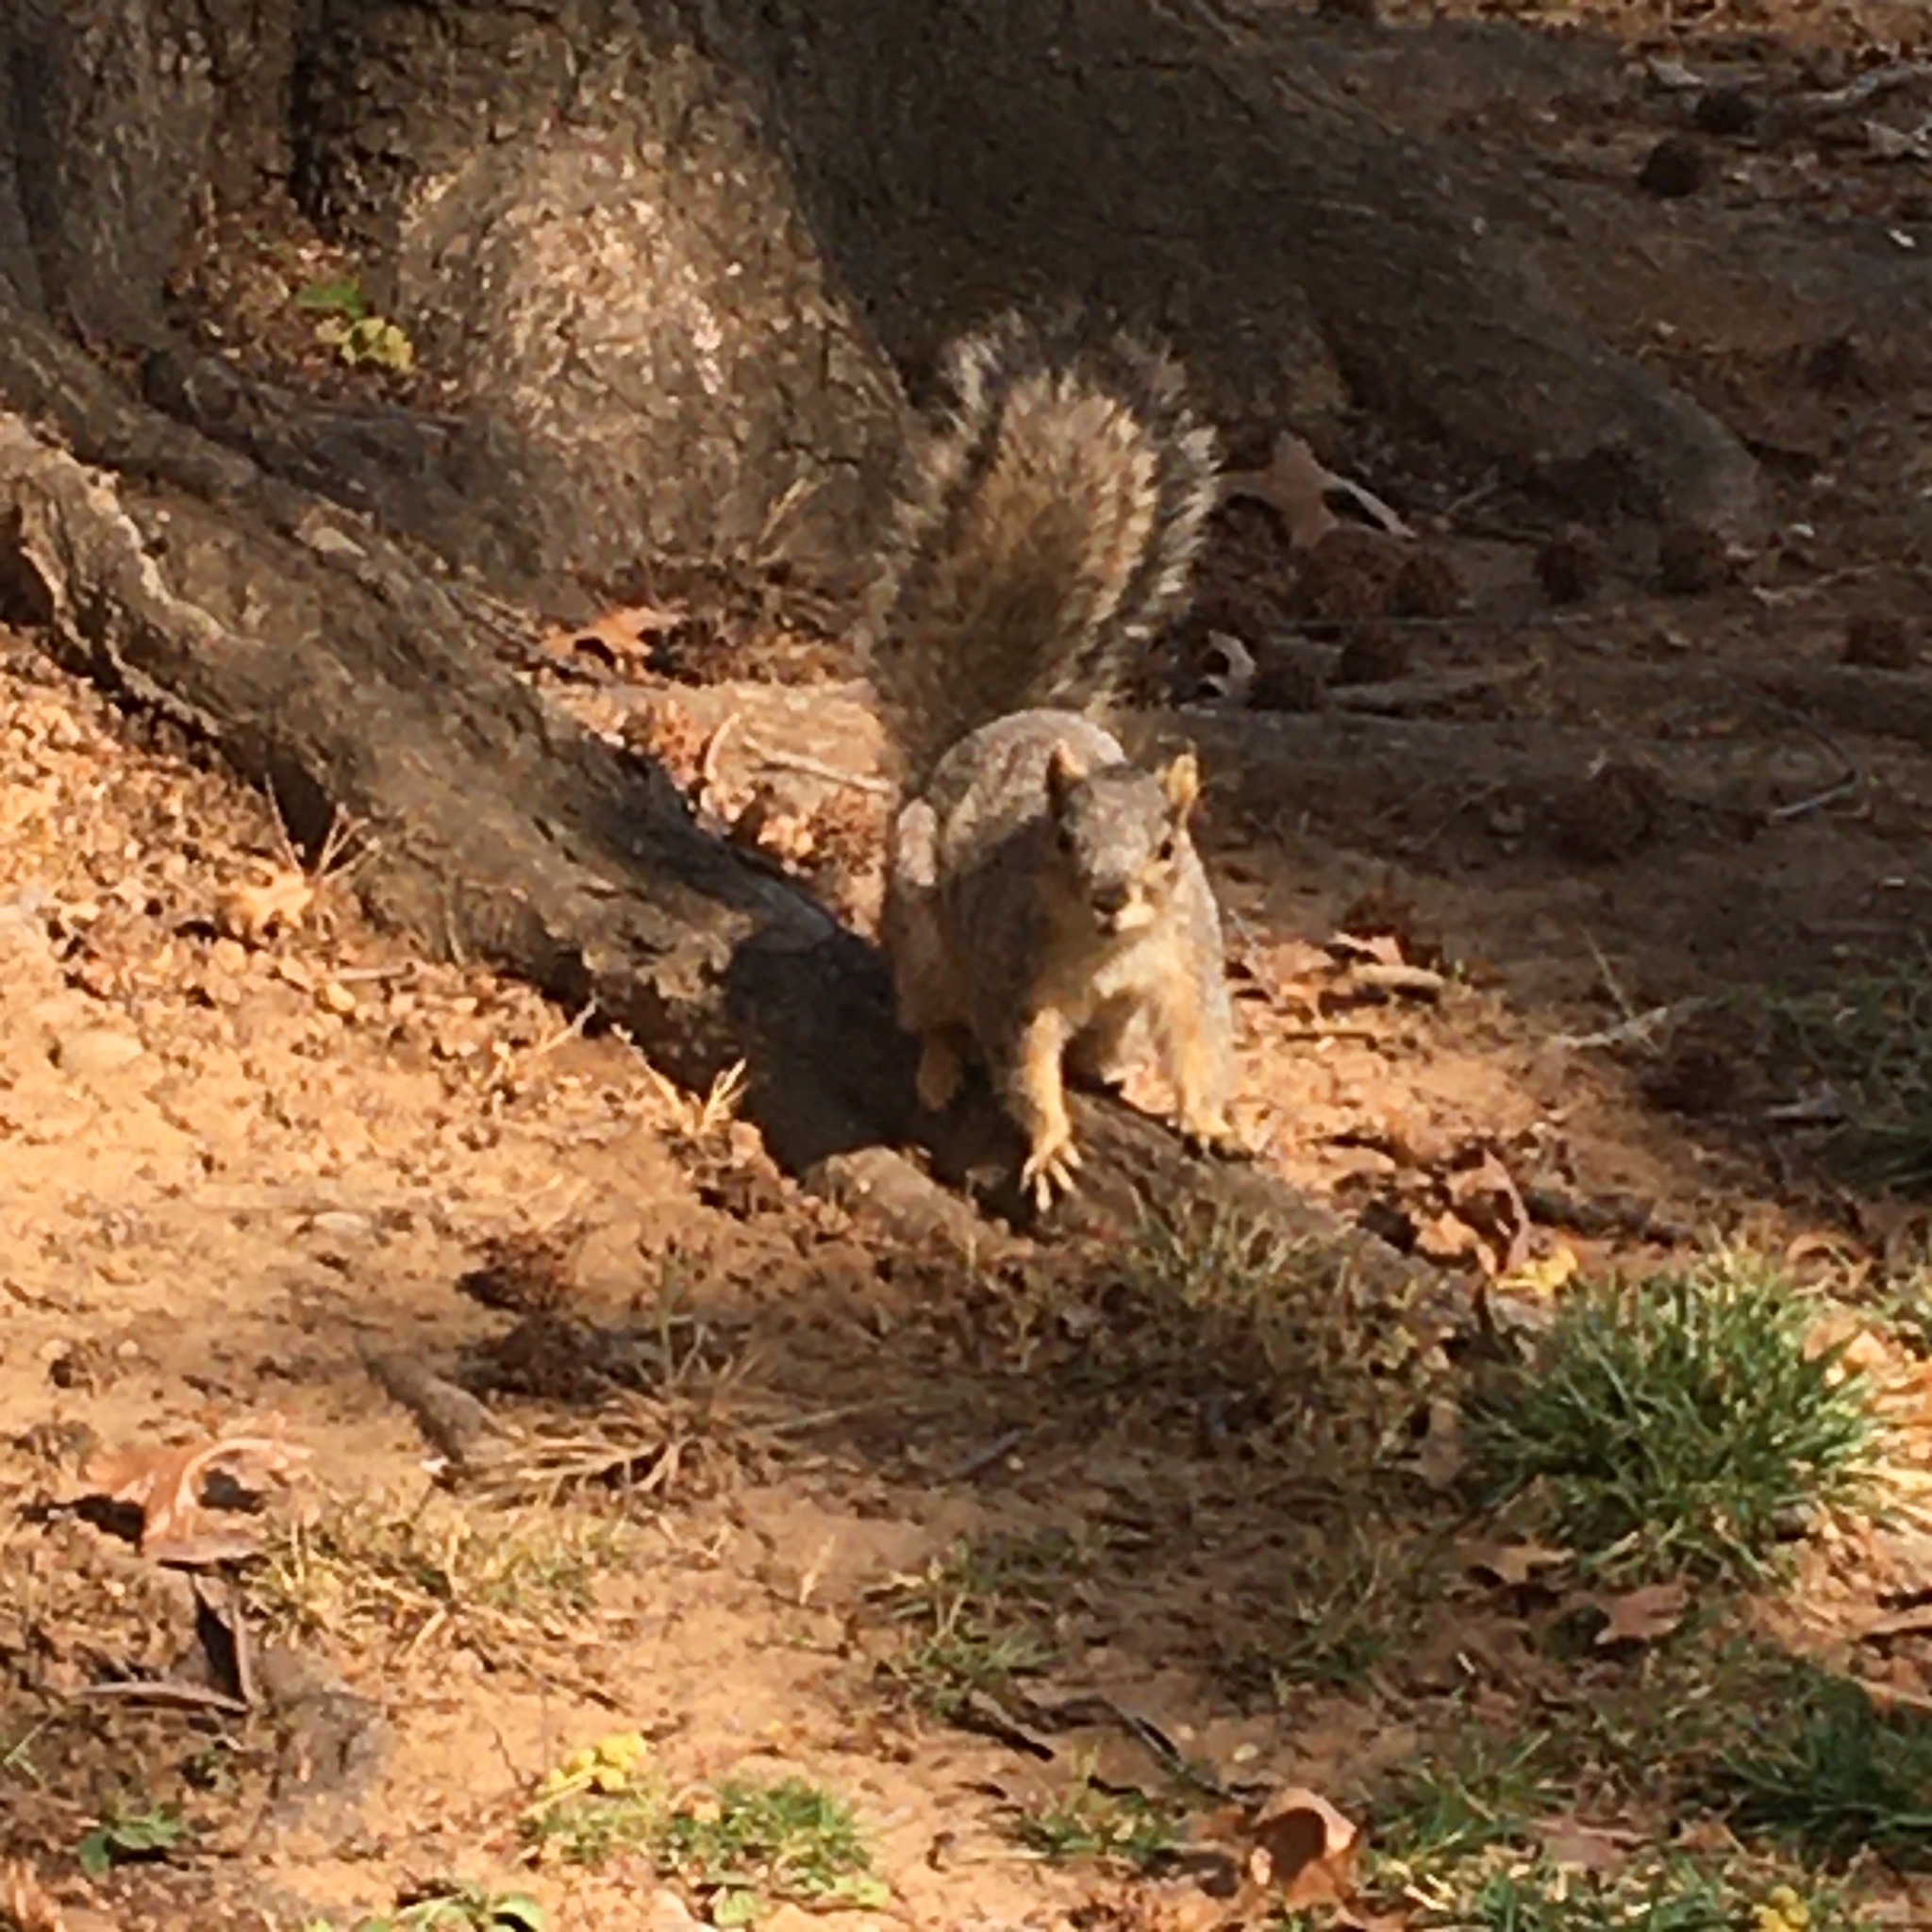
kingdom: Animalia
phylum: Chordata
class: Mammalia
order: Rodentia
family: Sciuridae
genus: Sciurus
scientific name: Sciurus niger
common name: Fox squirrel
